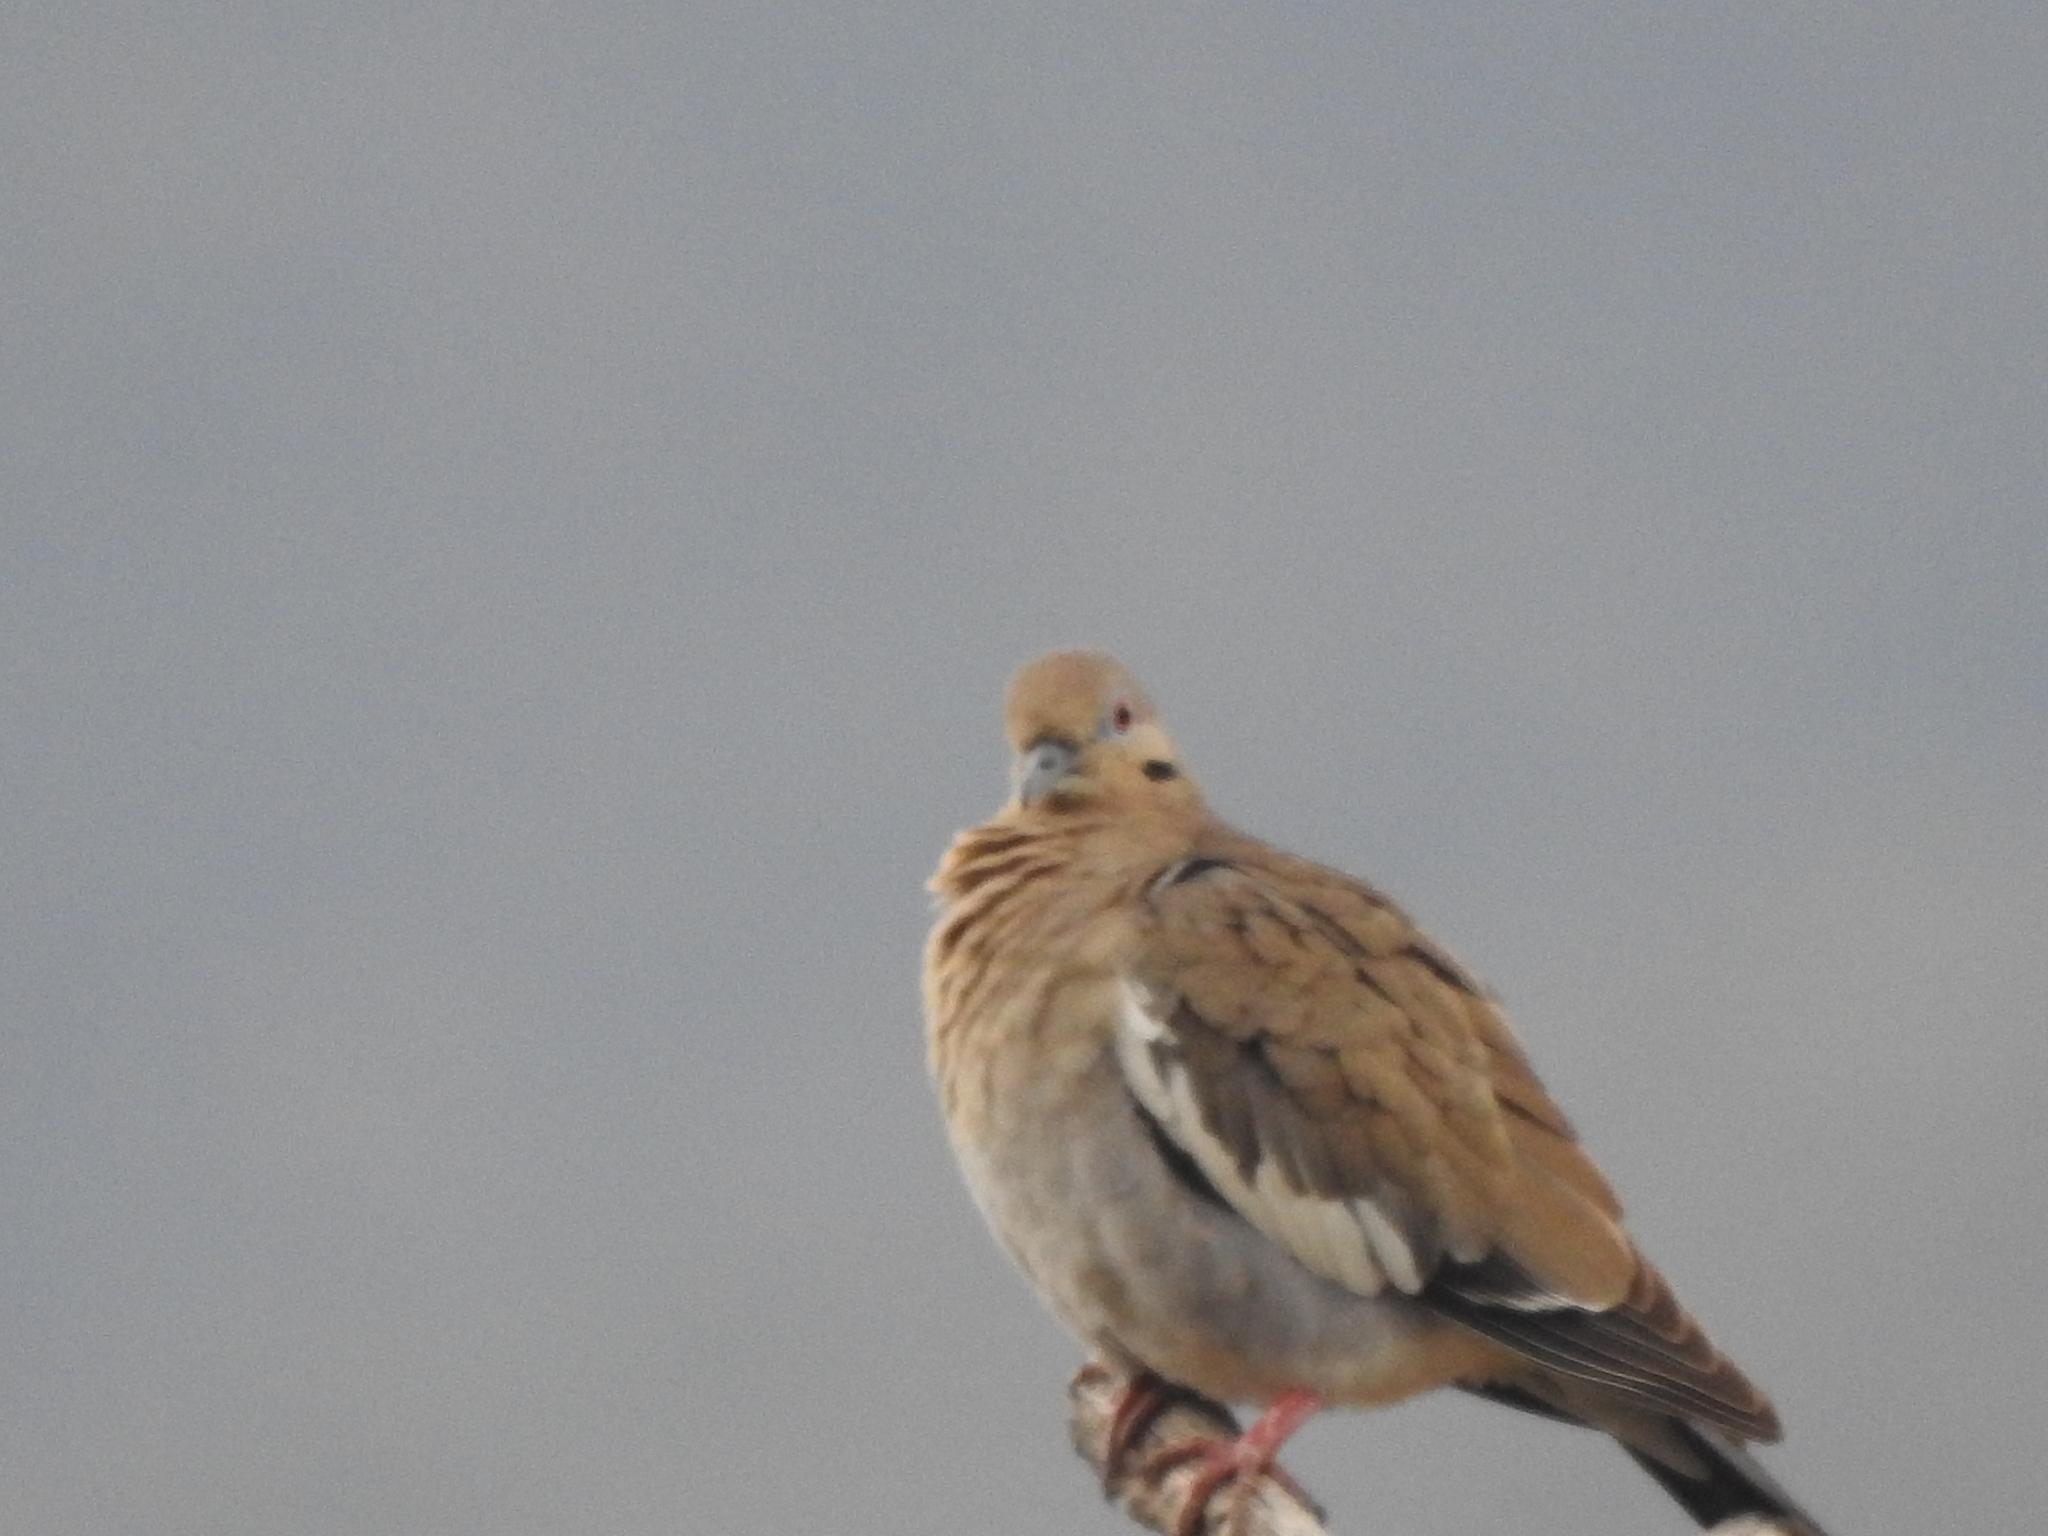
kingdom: Animalia
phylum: Chordata
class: Aves
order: Columbiformes
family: Columbidae
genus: Zenaida
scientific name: Zenaida asiatica
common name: White-winged dove
